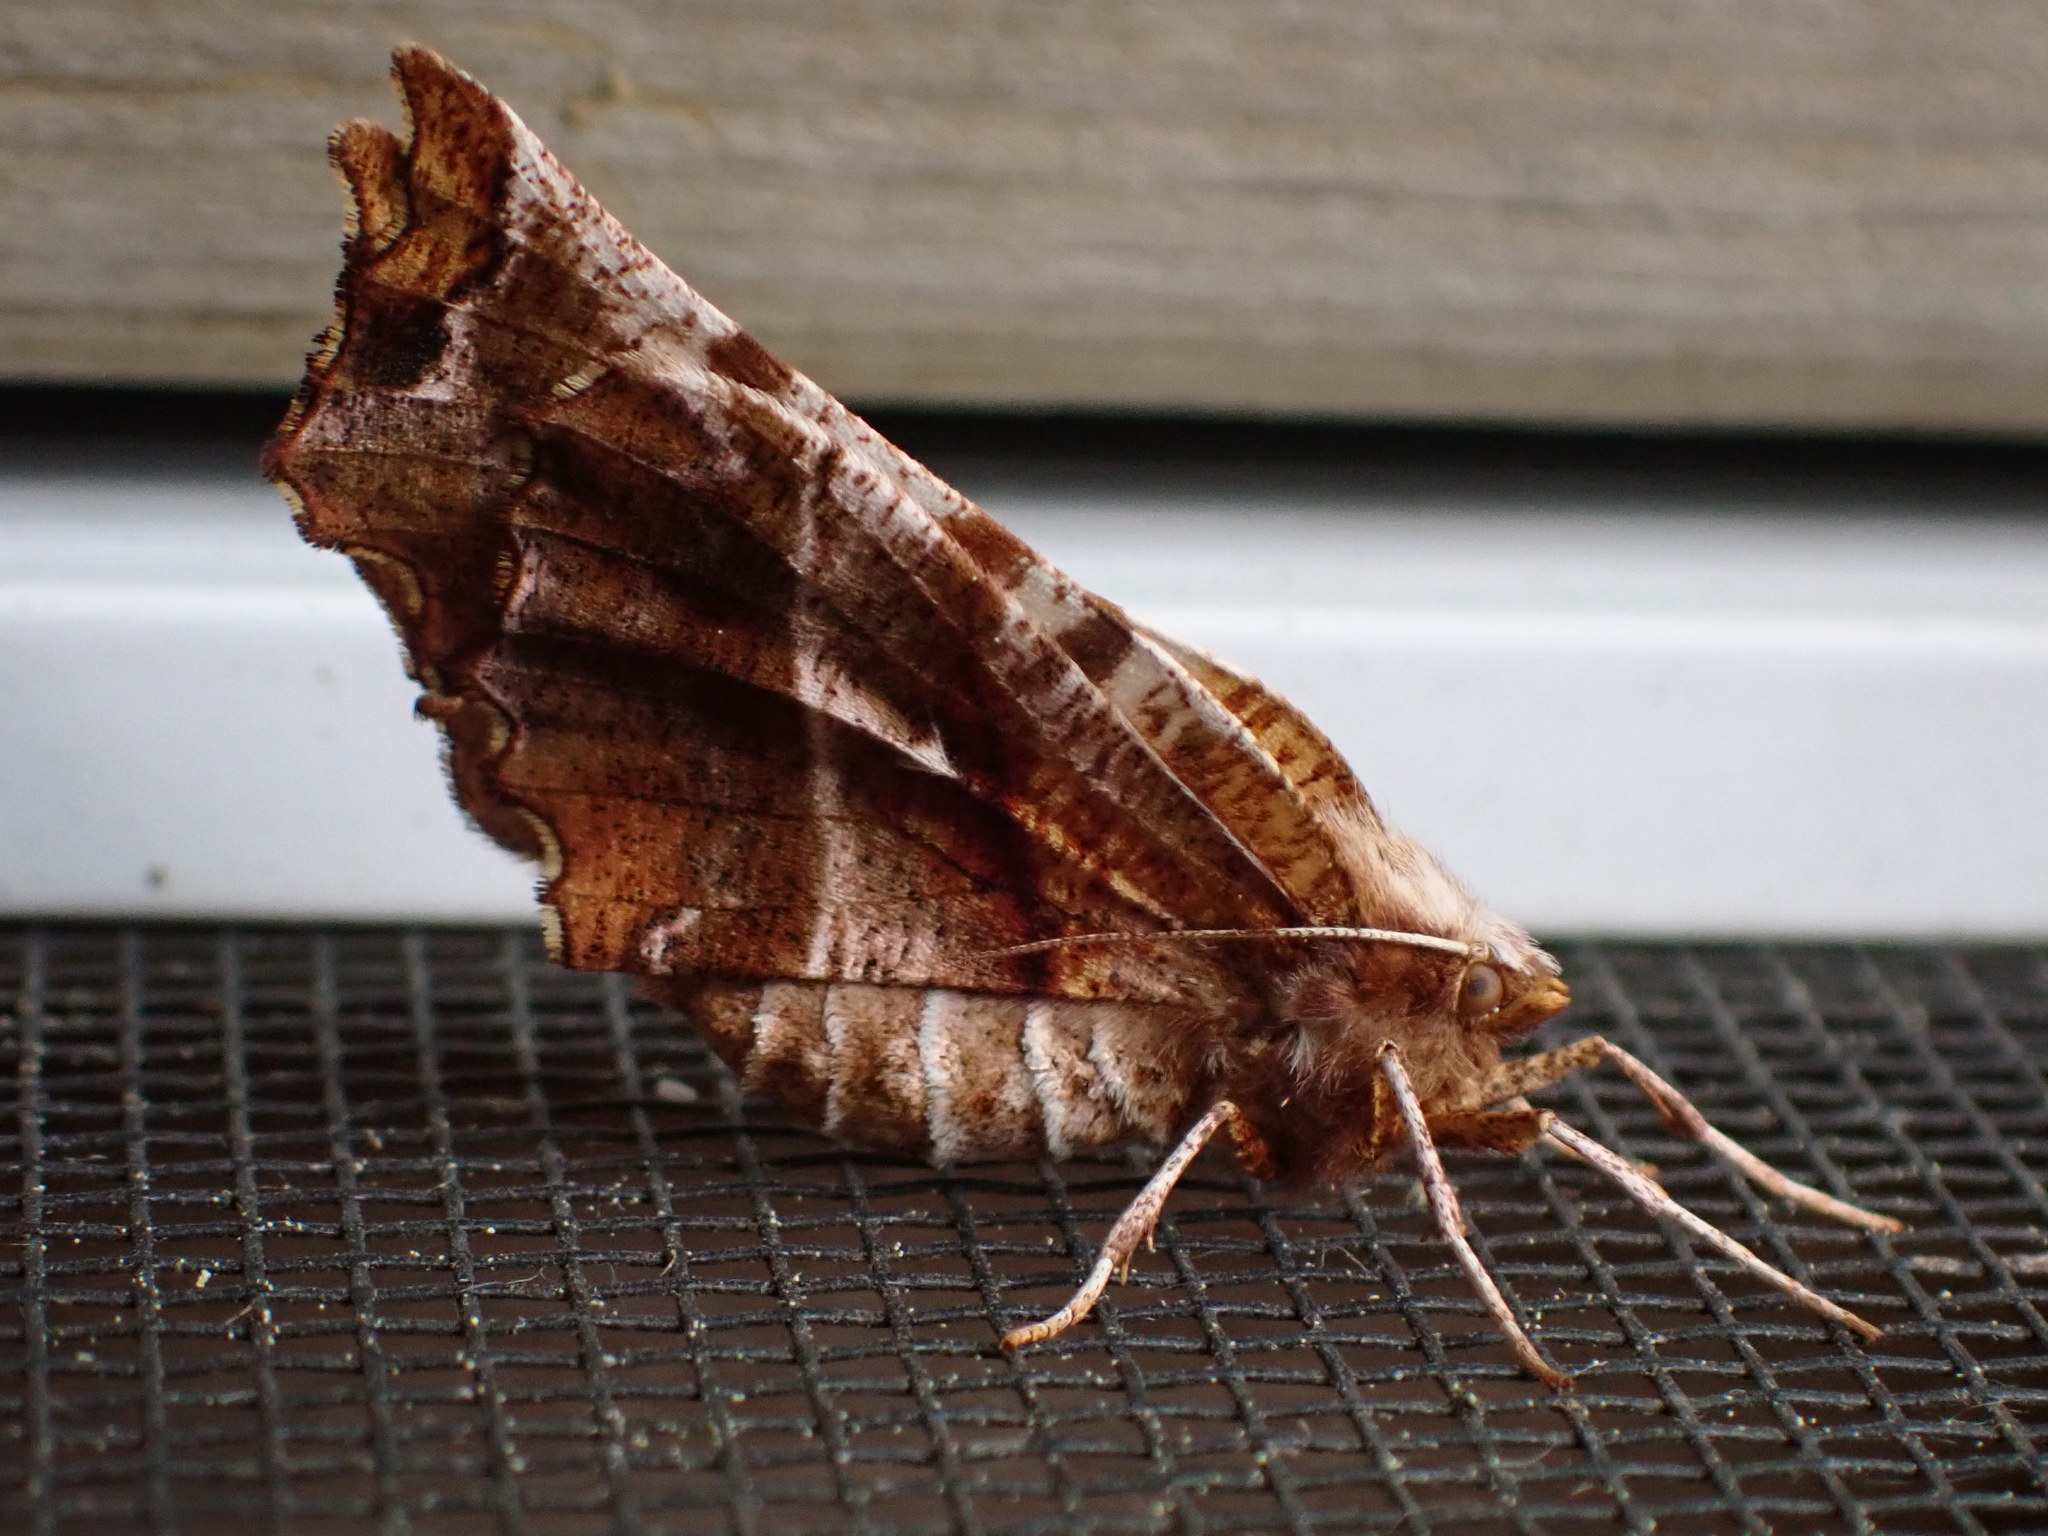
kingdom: Animalia
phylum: Arthropoda
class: Insecta
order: Lepidoptera
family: Geometridae
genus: Selenia
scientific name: Selenia alciphearia
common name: Brown-tipped thorn
